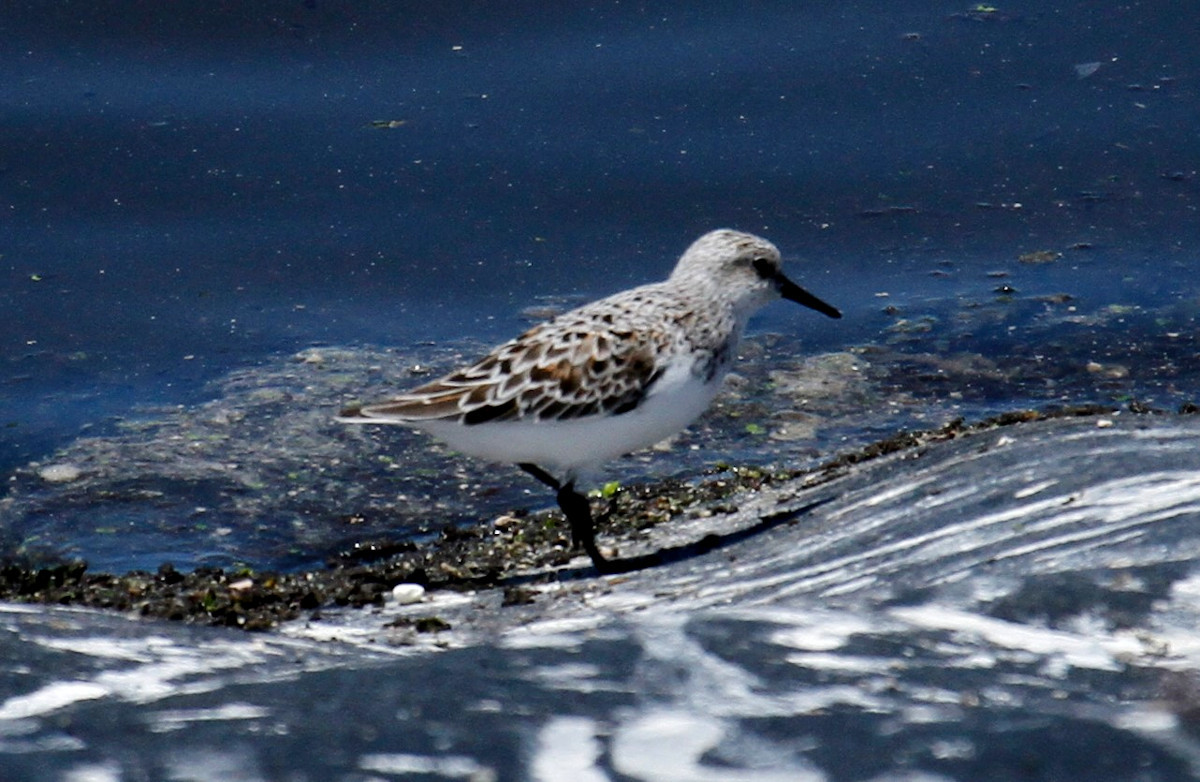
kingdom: Animalia
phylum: Chordata
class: Aves
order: Charadriiformes
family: Scolopacidae
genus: Calidris
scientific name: Calidris alba
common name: Sanderling
